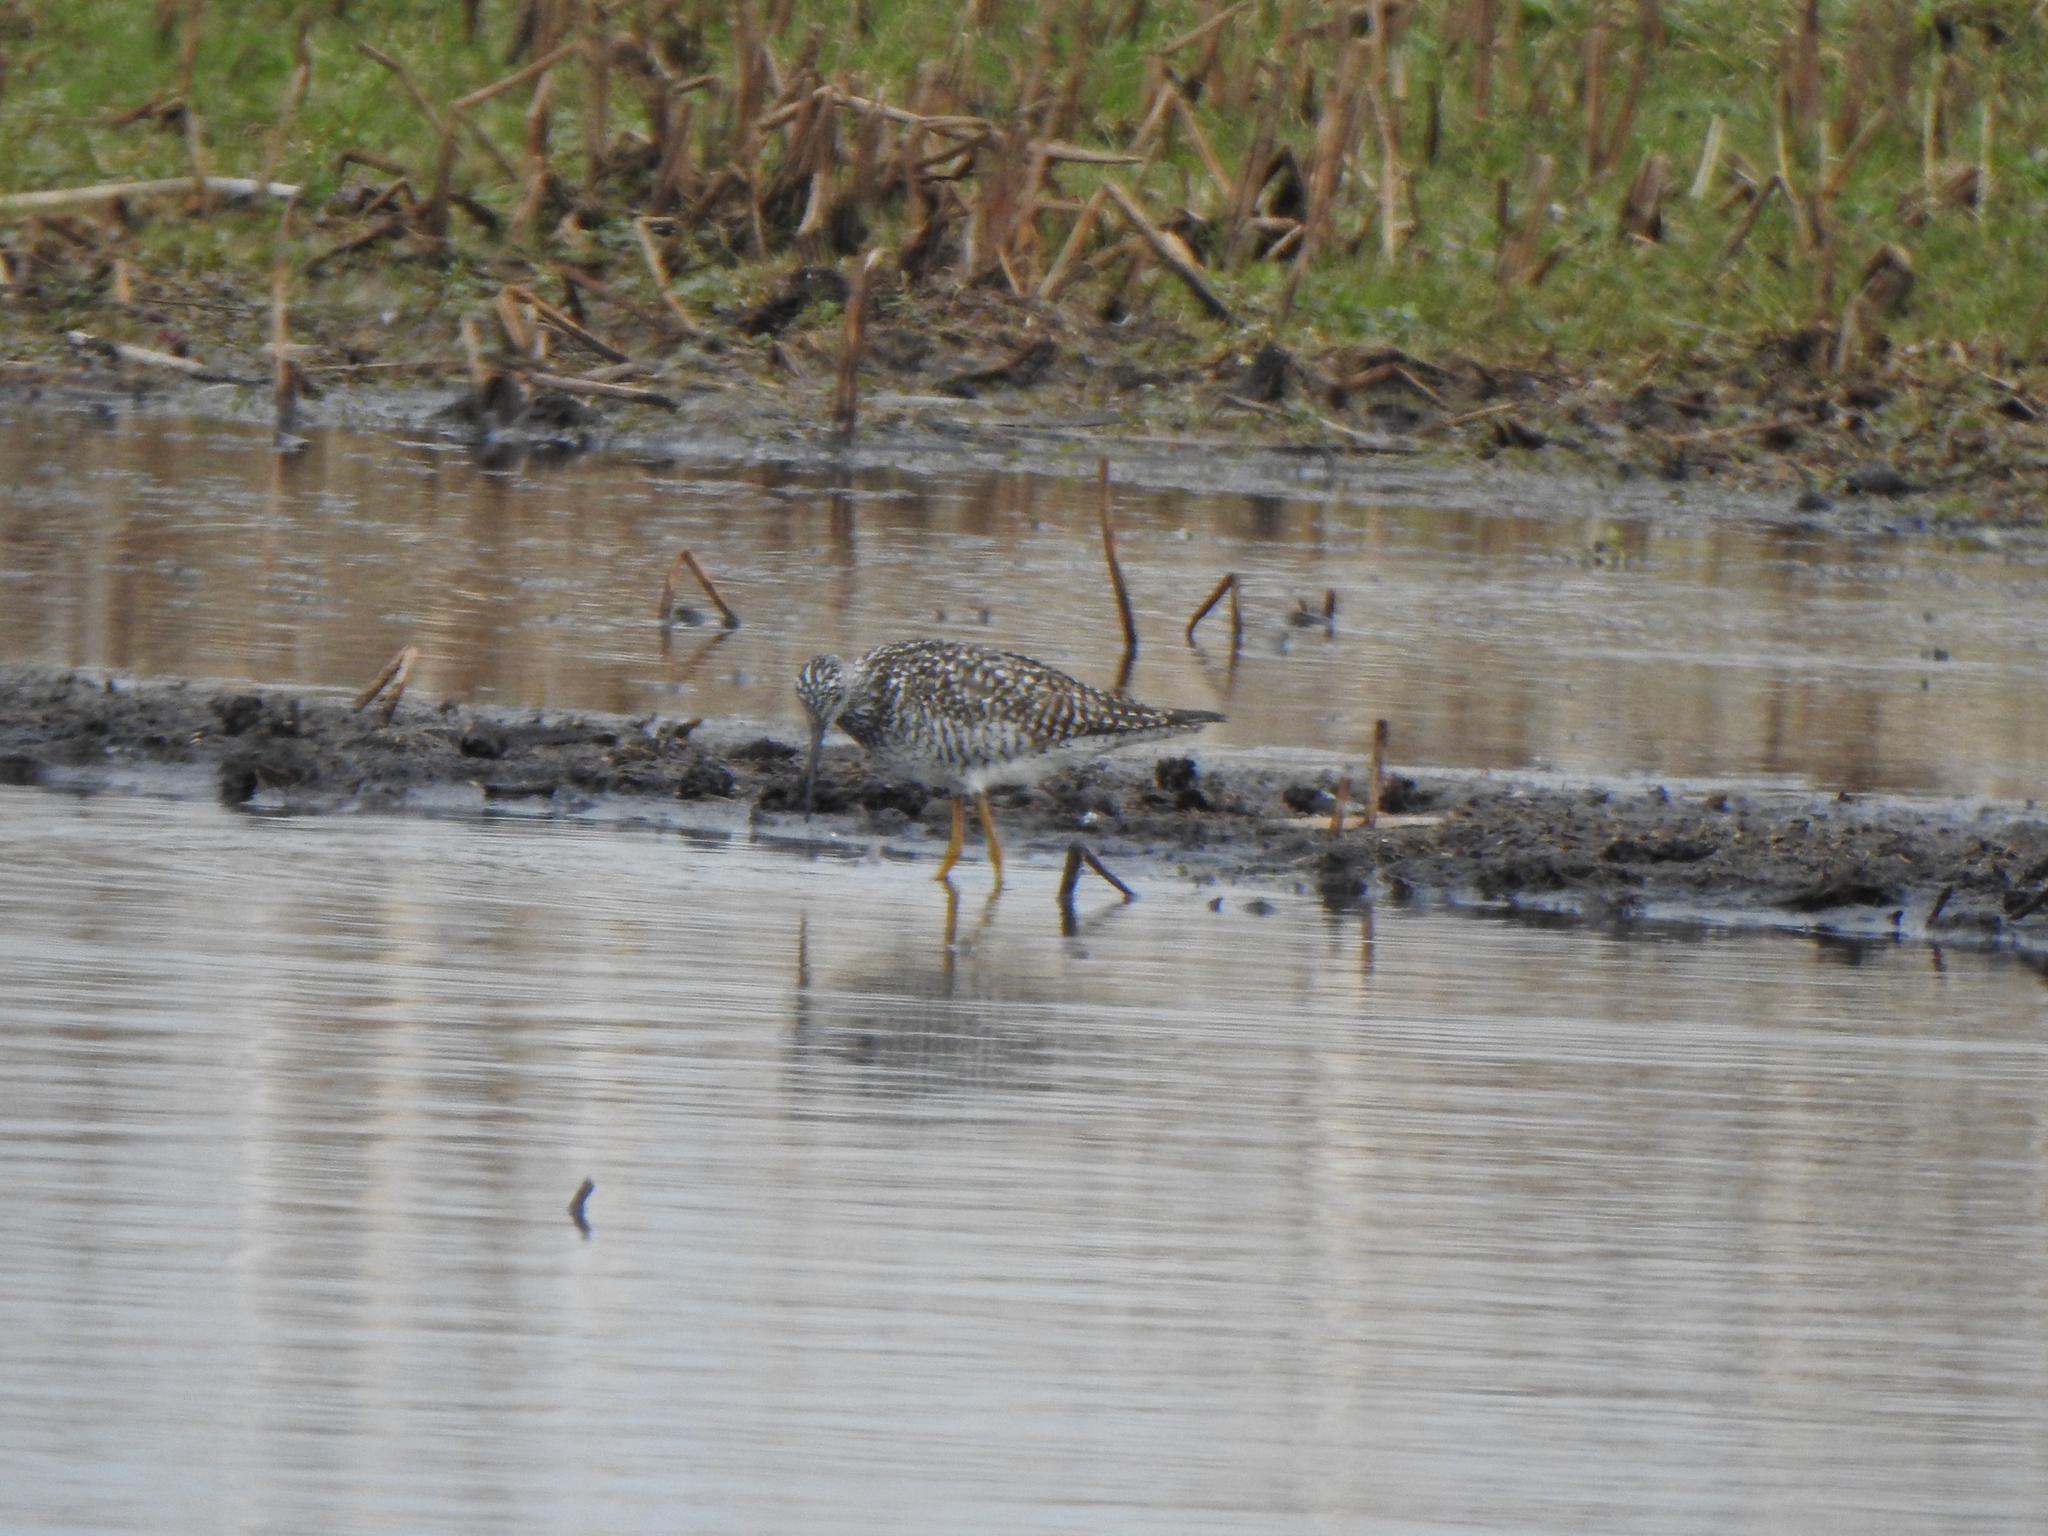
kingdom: Animalia
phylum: Chordata
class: Aves
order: Charadriiformes
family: Scolopacidae
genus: Tringa
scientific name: Tringa melanoleuca
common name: Greater yellowlegs
